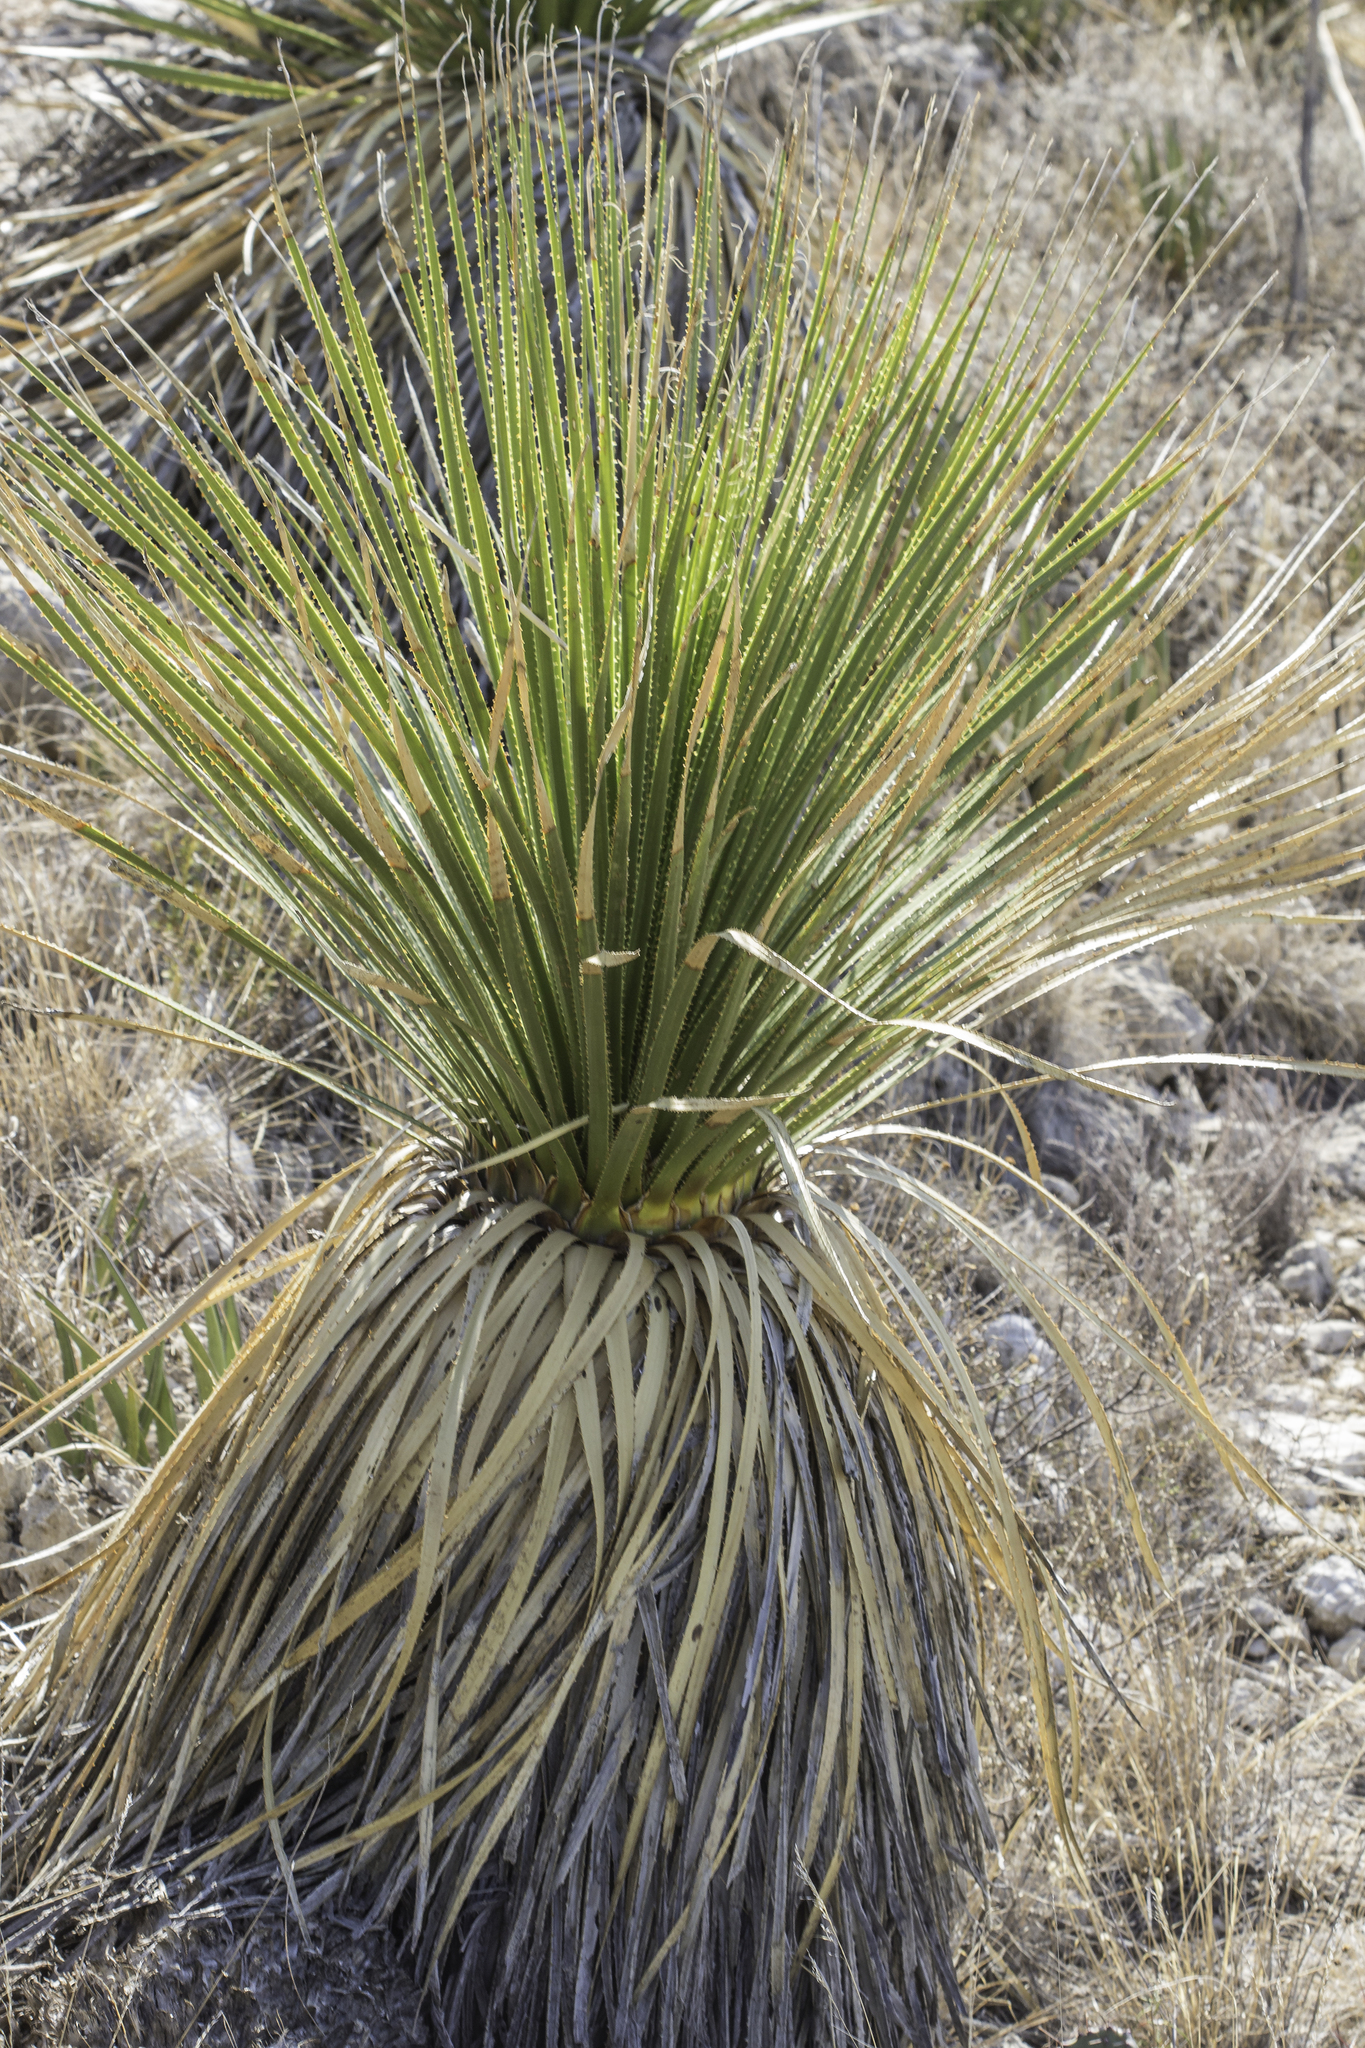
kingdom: Plantae
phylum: Tracheophyta
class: Liliopsida
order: Asparagales
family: Asparagaceae
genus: Dasylirion
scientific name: Dasylirion leiophyllum
